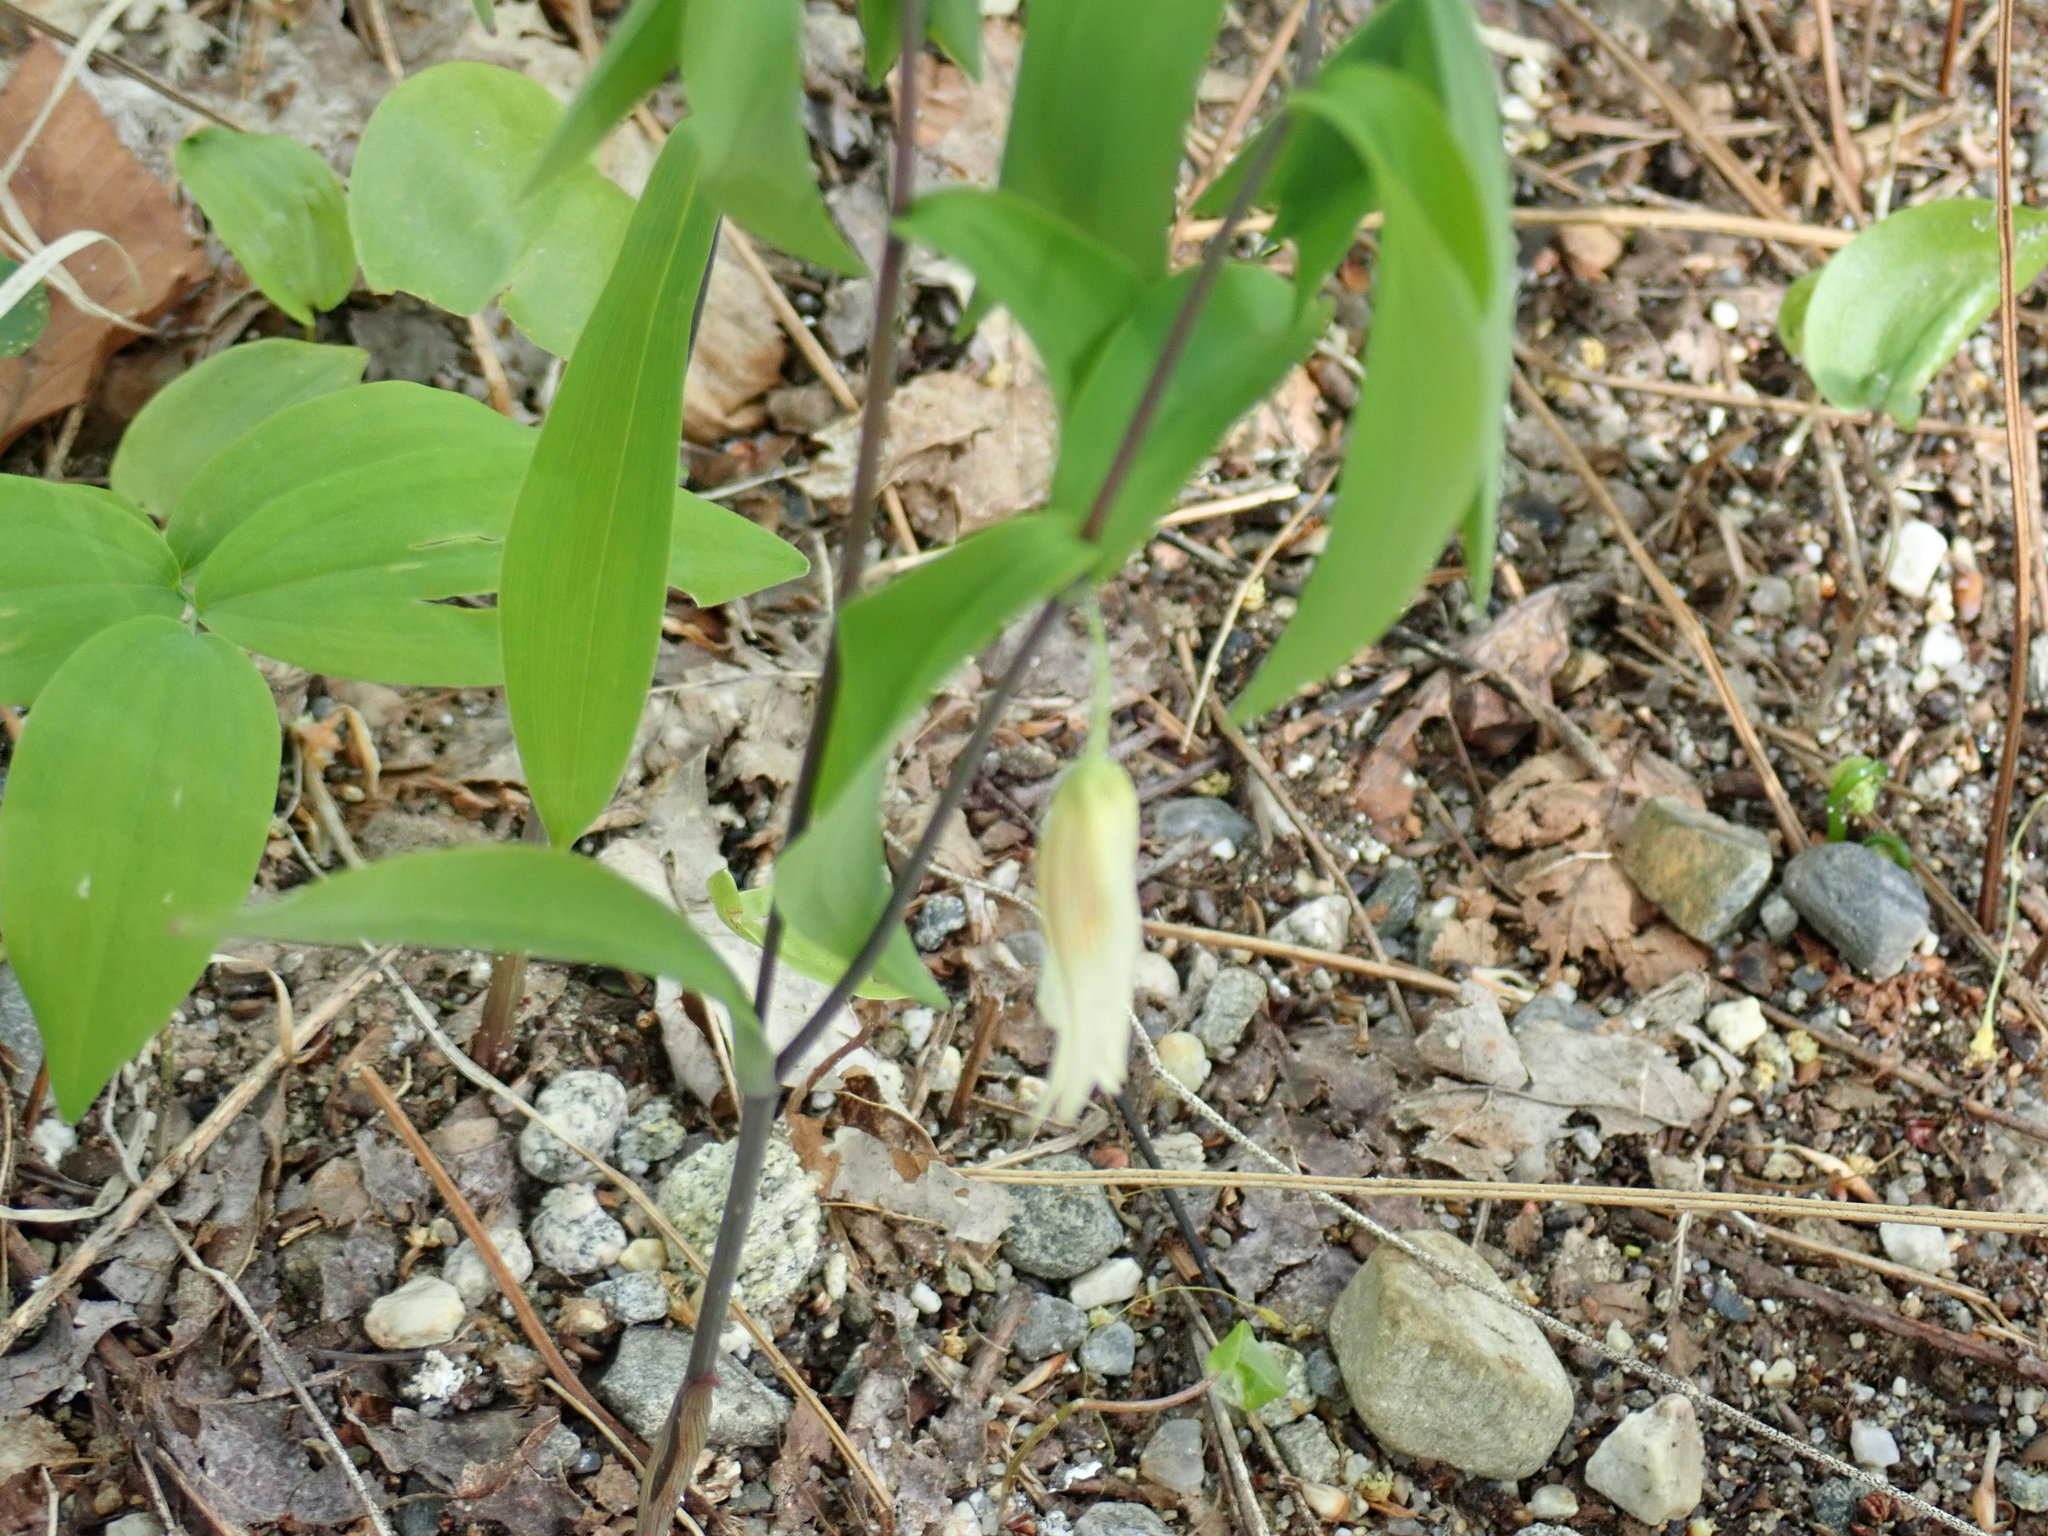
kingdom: Plantae
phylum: Tracheophyta
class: Liliopsida
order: Liliales
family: Colchicaceae
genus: Uvularia
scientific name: Uvularia sessilifolia
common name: Straw-lily
